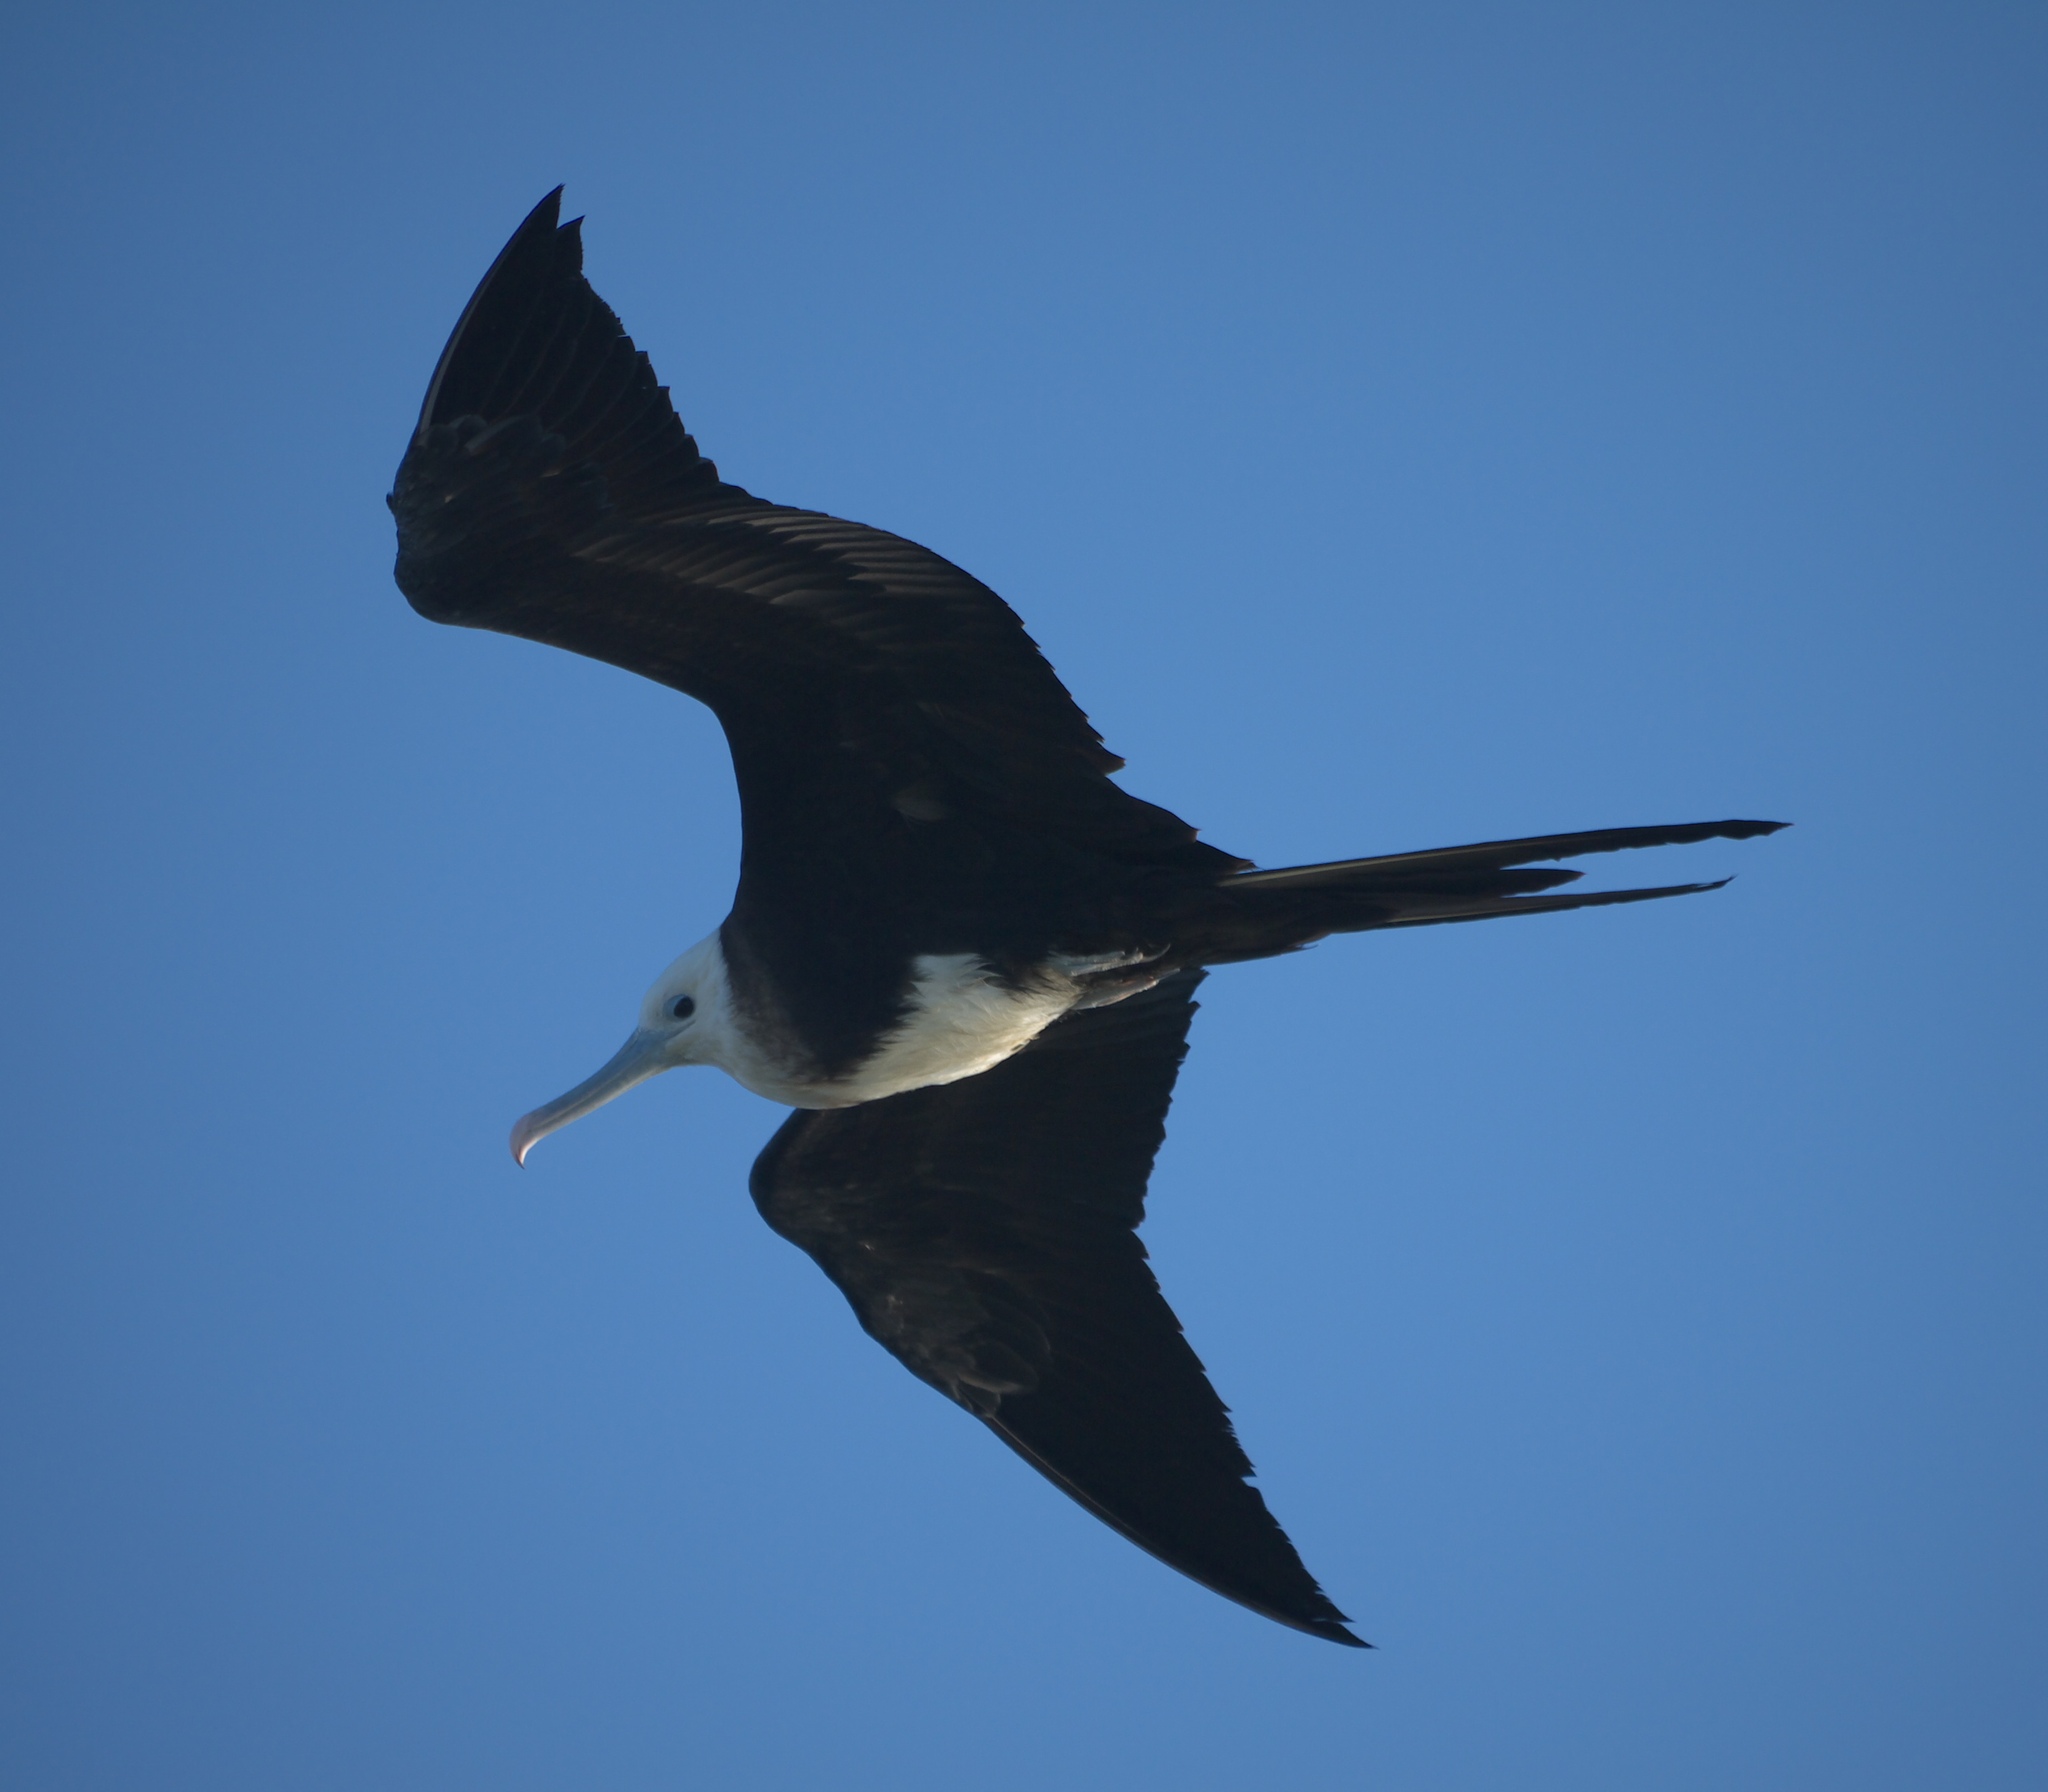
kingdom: Animalia
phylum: Chordata
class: Aves
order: Suliformes
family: Fregatidae
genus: Fregata
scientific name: Fregata magnificens
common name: Magnificent frigatebird
